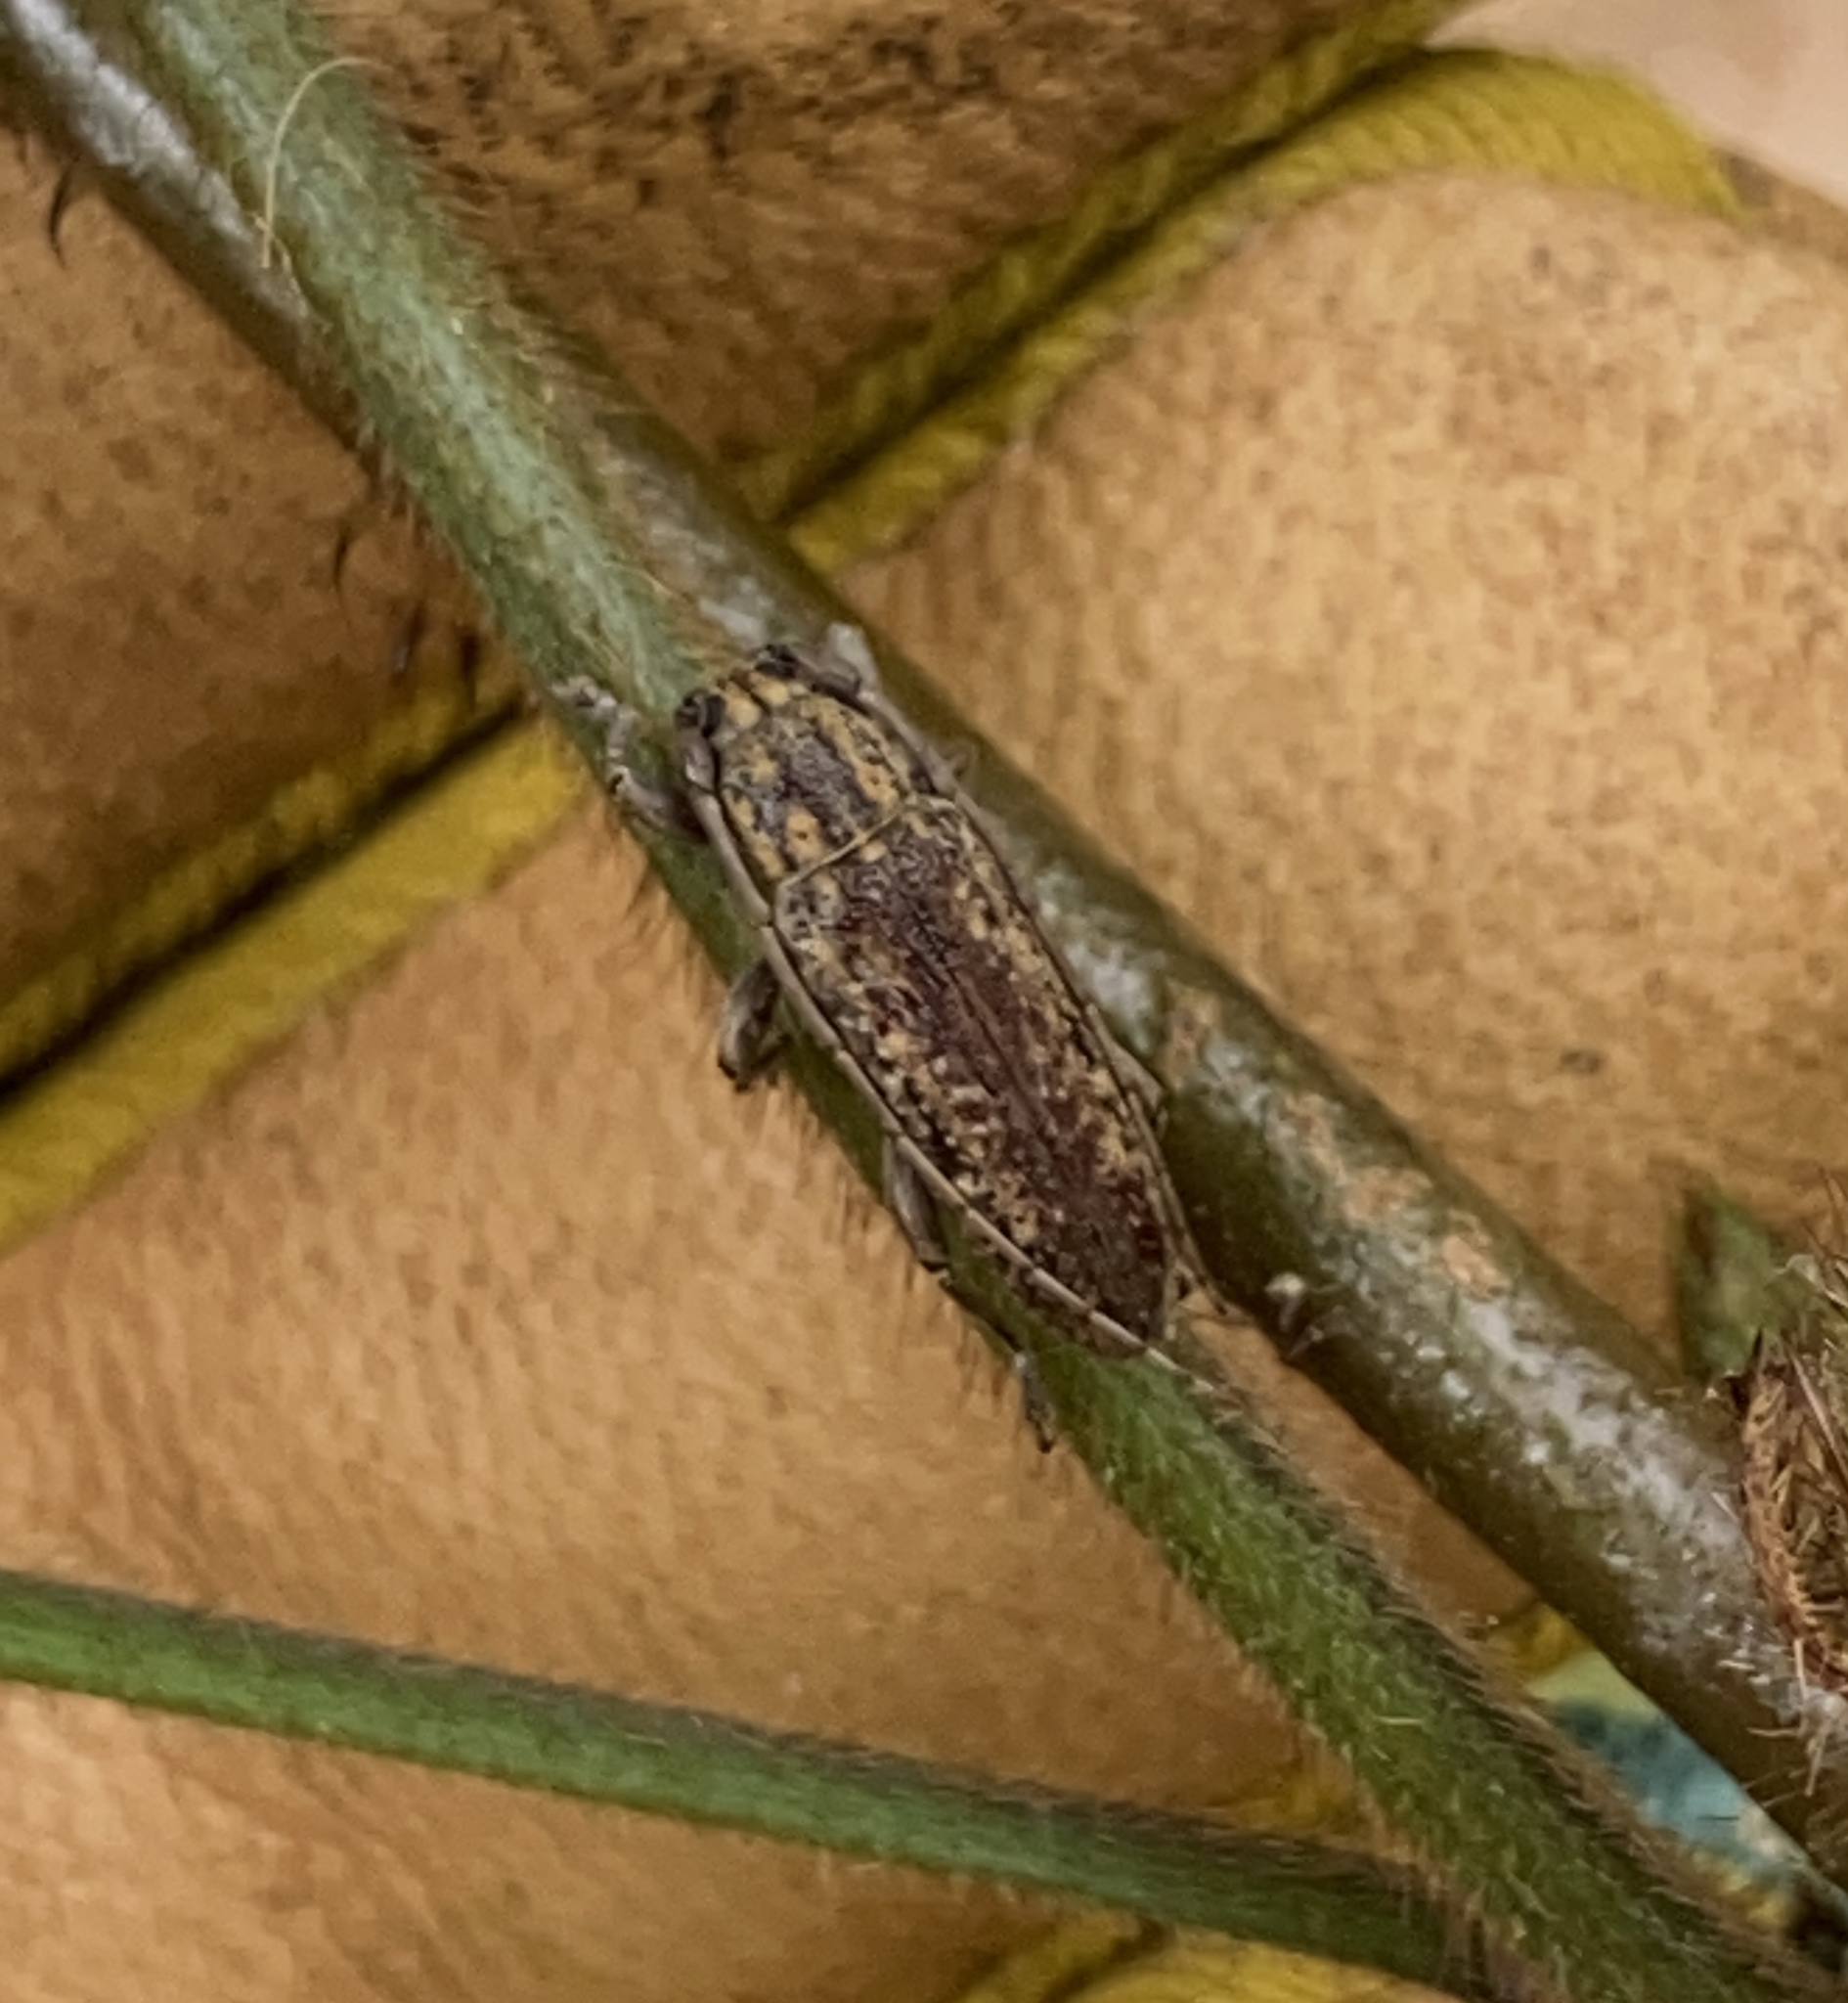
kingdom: Animalia
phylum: Arthropoda
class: Insecta
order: Coleoptera
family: Cerambycidae
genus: Mycerinopsis
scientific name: Mycerinopsis alternans
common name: Long horned beetle
